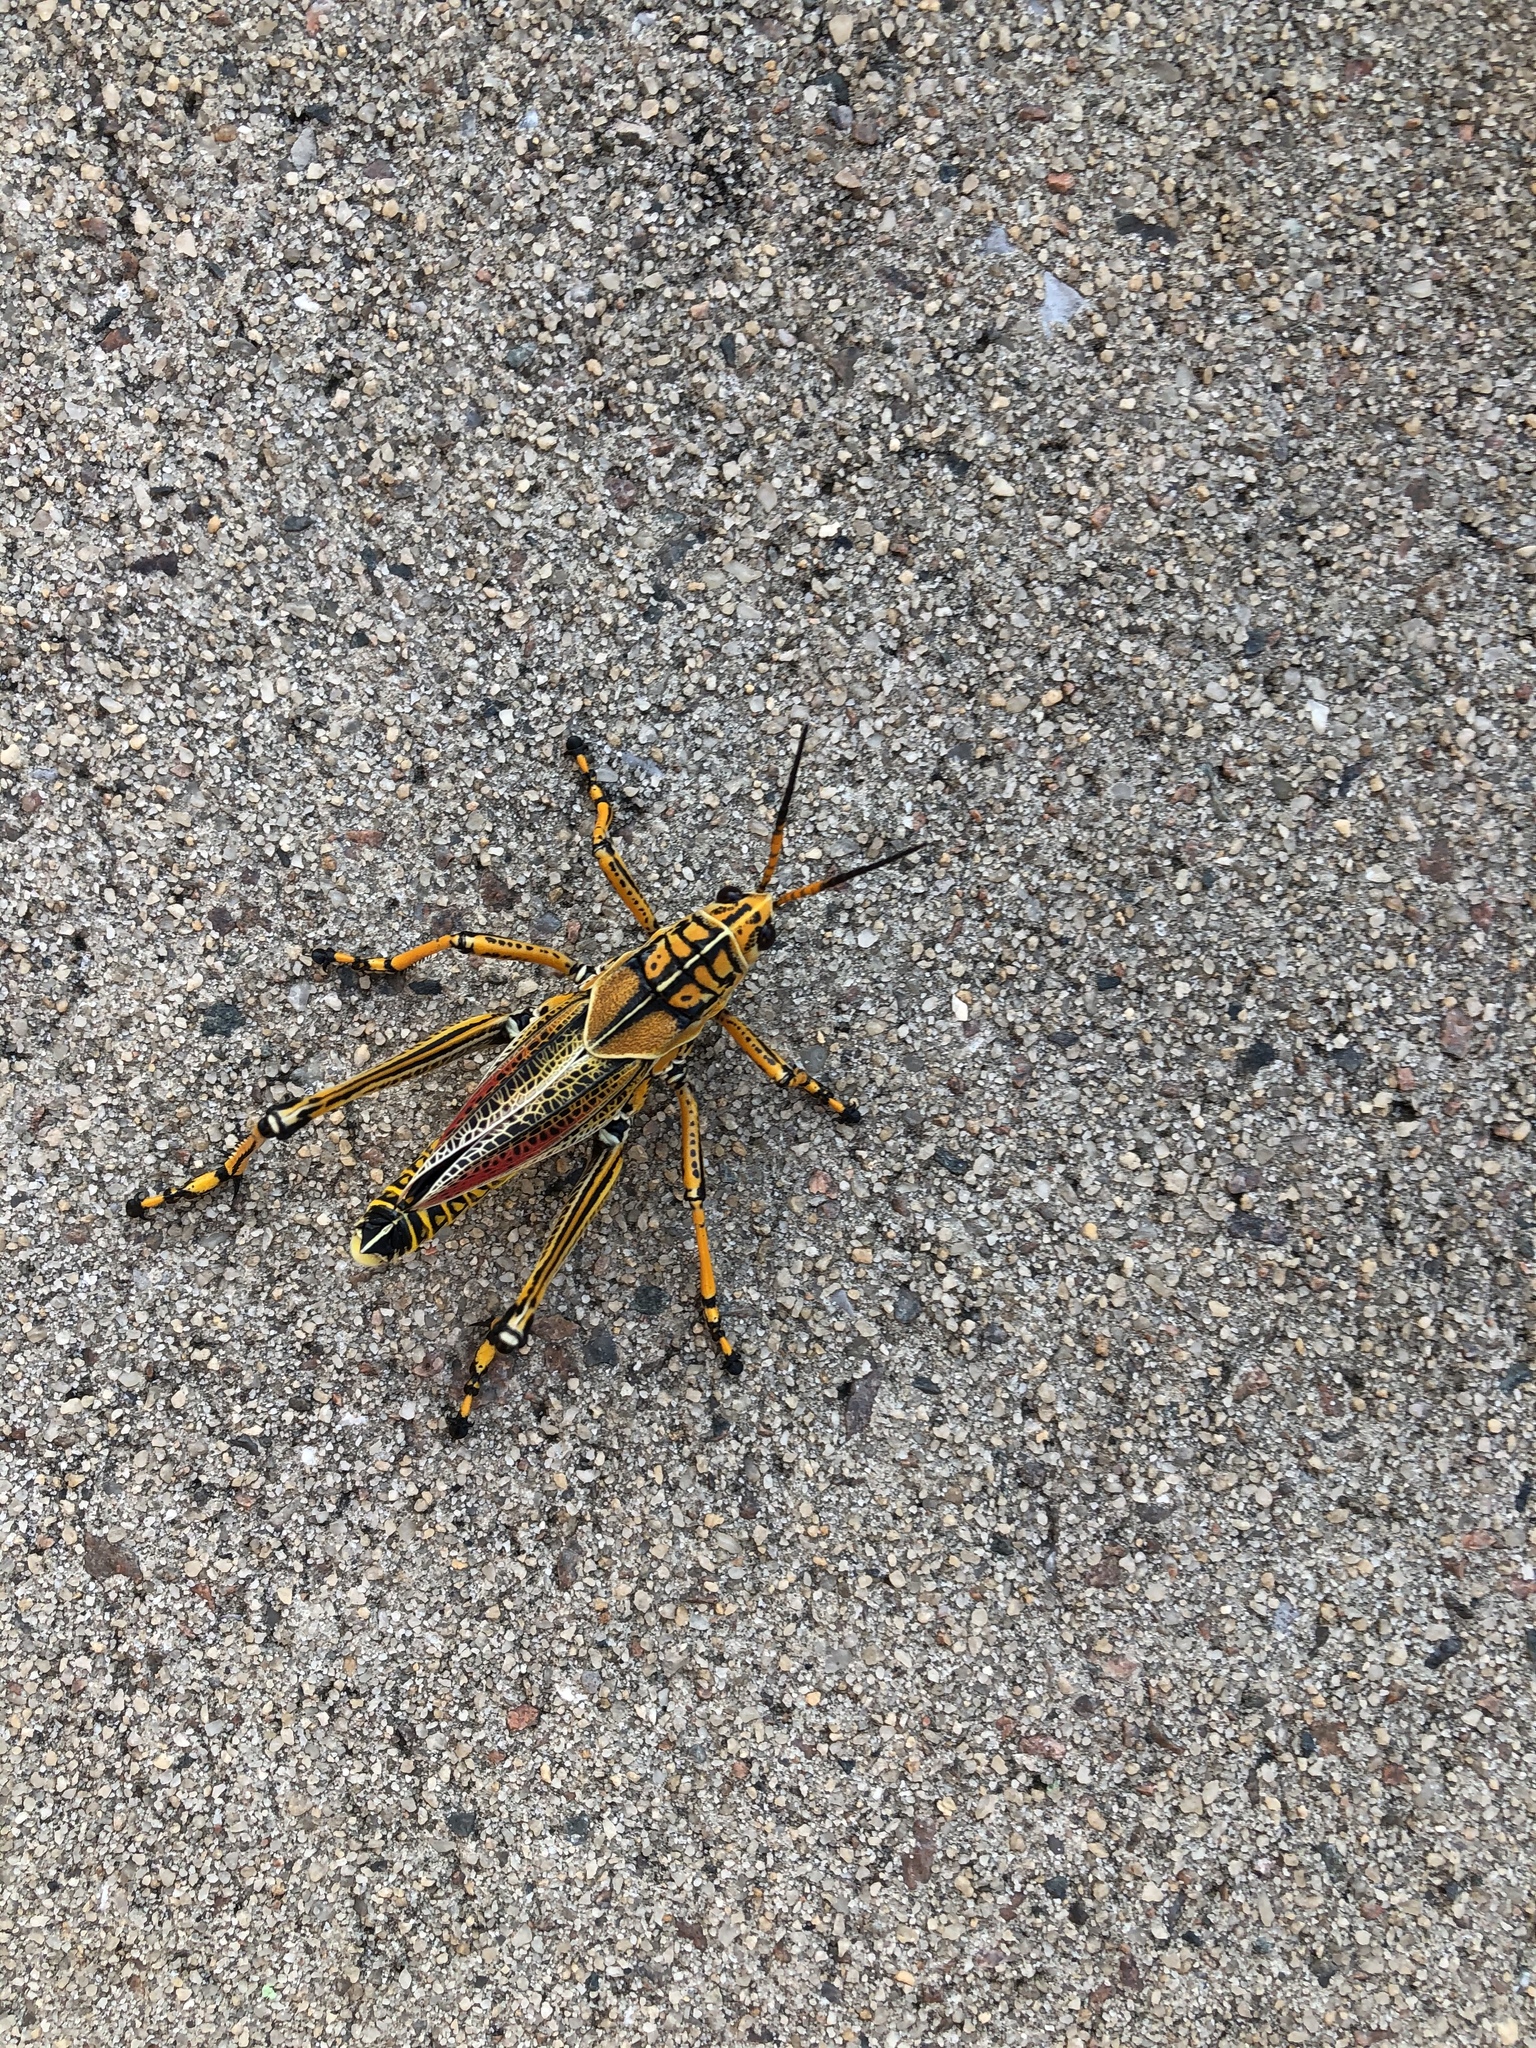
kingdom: Animalia
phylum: Arthropoda
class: Insecta
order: Orthoptera
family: Romaleidae
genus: Romalea
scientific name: Romalea microptera
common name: Eastern lubber grasshopper
